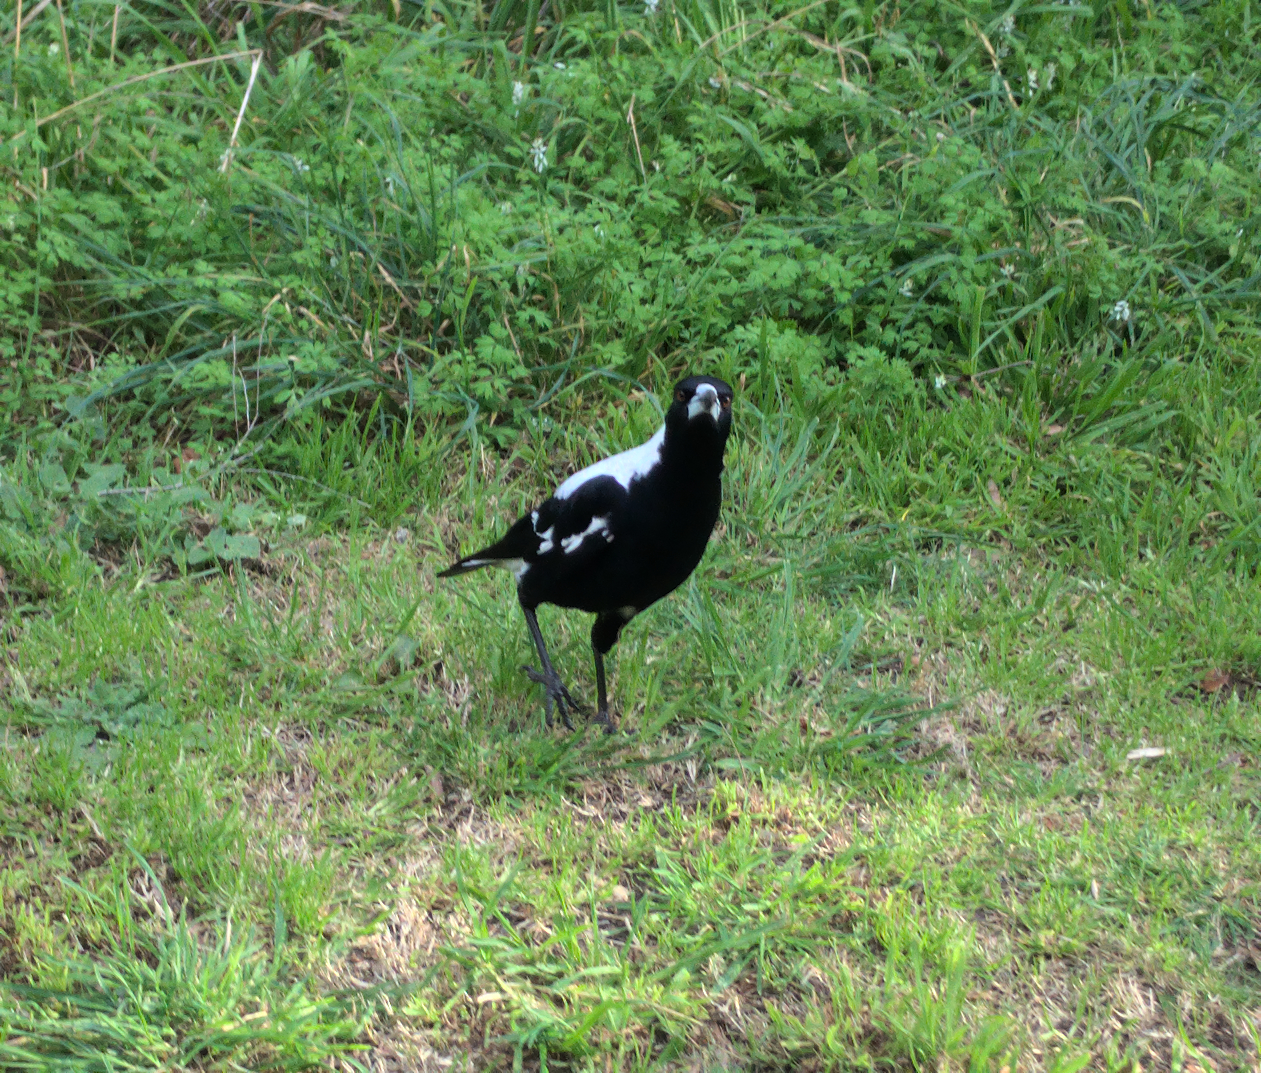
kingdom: Animalia
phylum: Chordata
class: Aves
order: Passeriformes
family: Cracticidae
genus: Gymnorhina
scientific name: Gymnorhina tibicen
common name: Australian magpie
